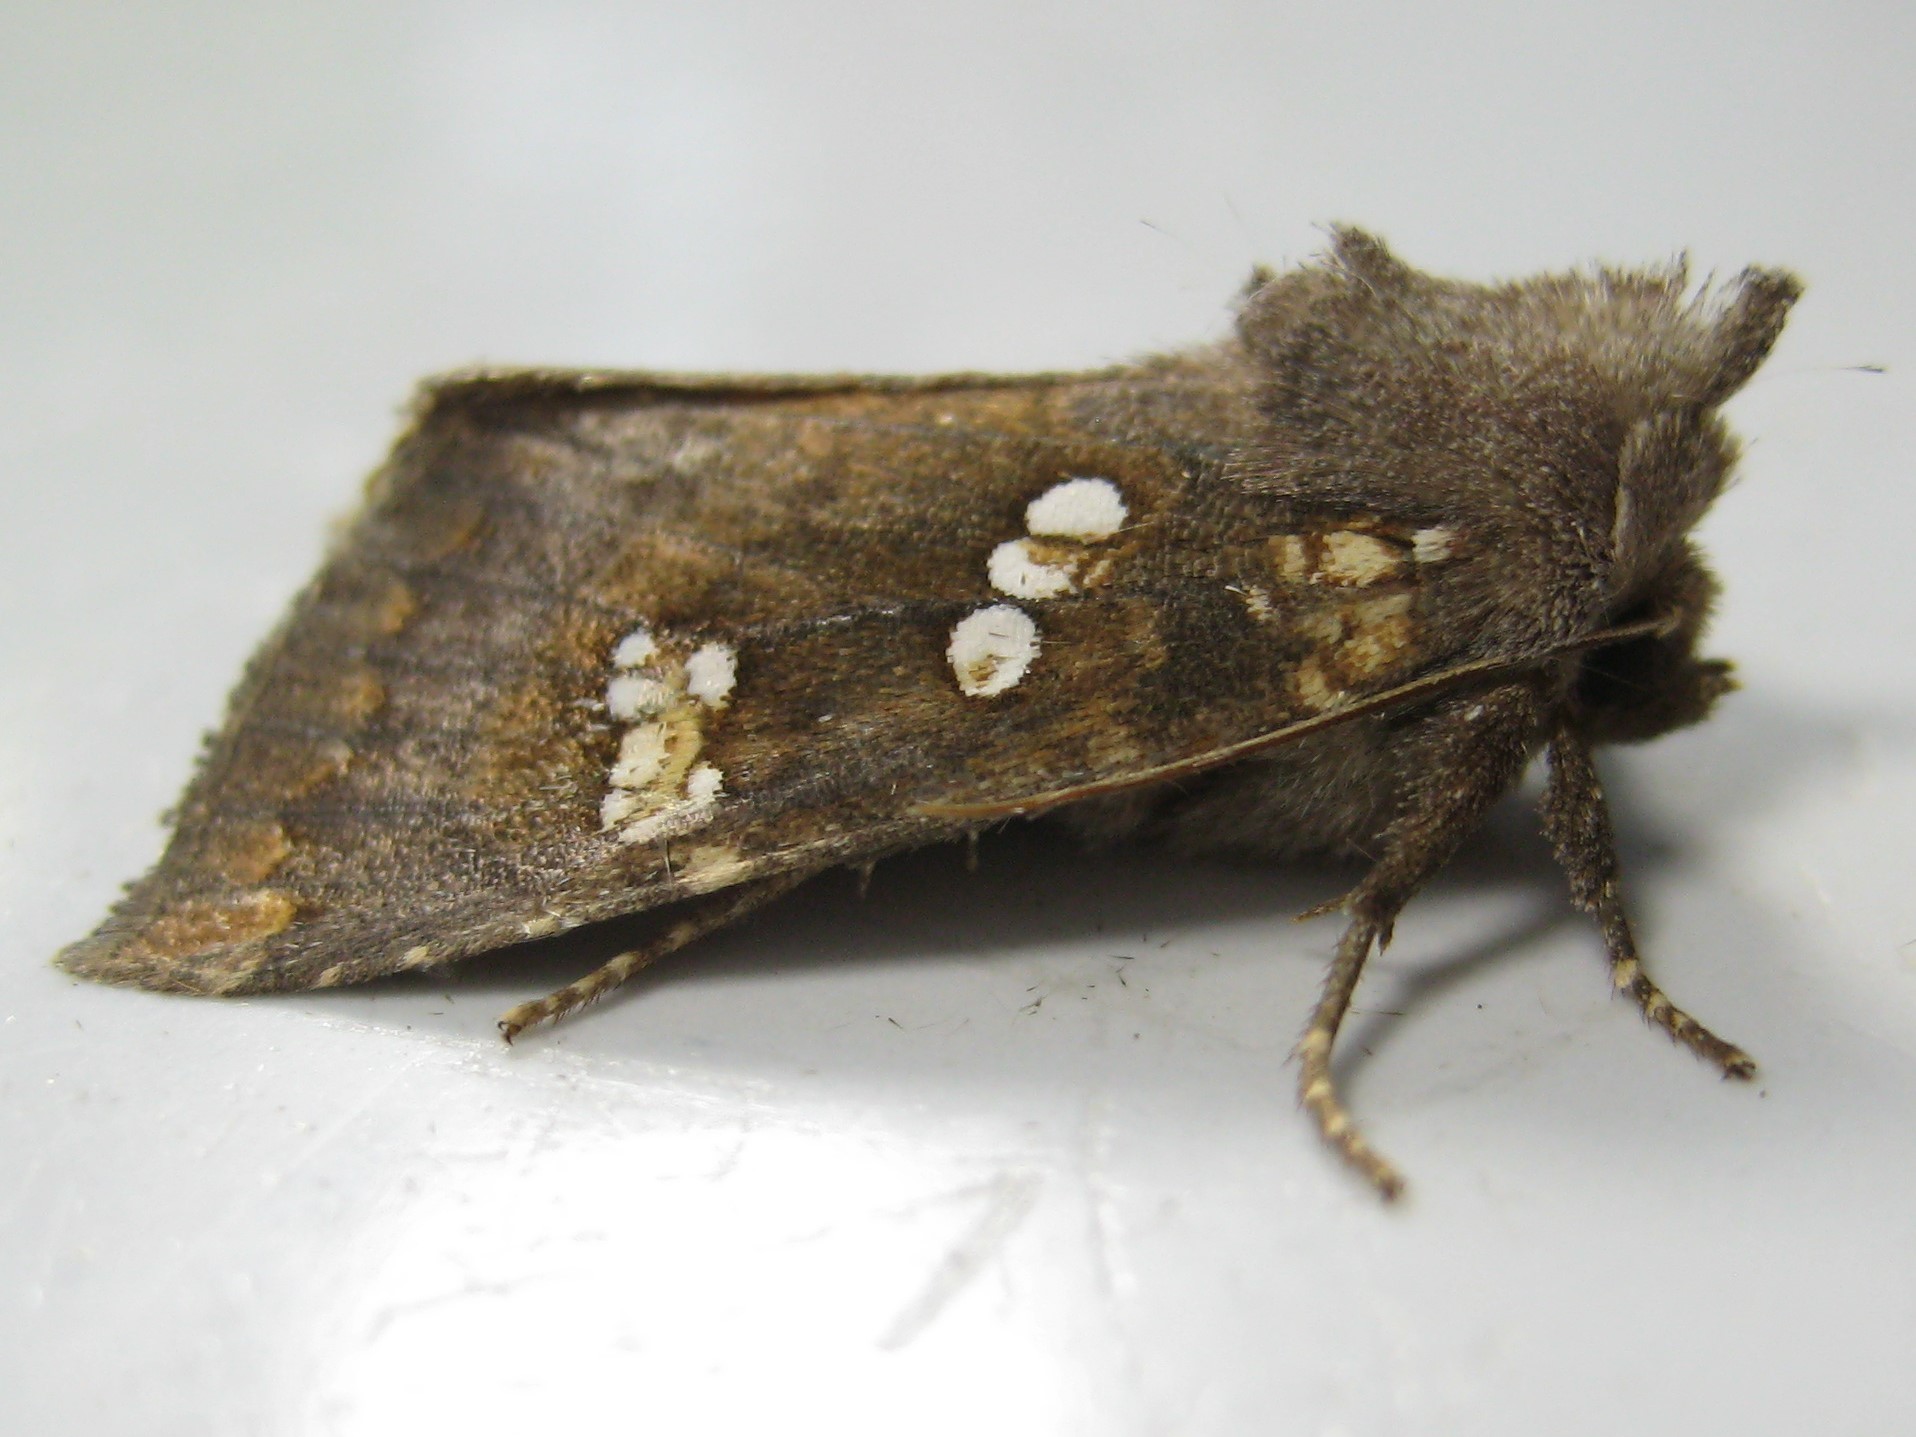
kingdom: Animalia
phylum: Arthropoda
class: Insecta
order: Lepidoptera
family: Noctuidae
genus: Papaipema
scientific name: Papaipema unimoda
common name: Meadow rue borer moth
